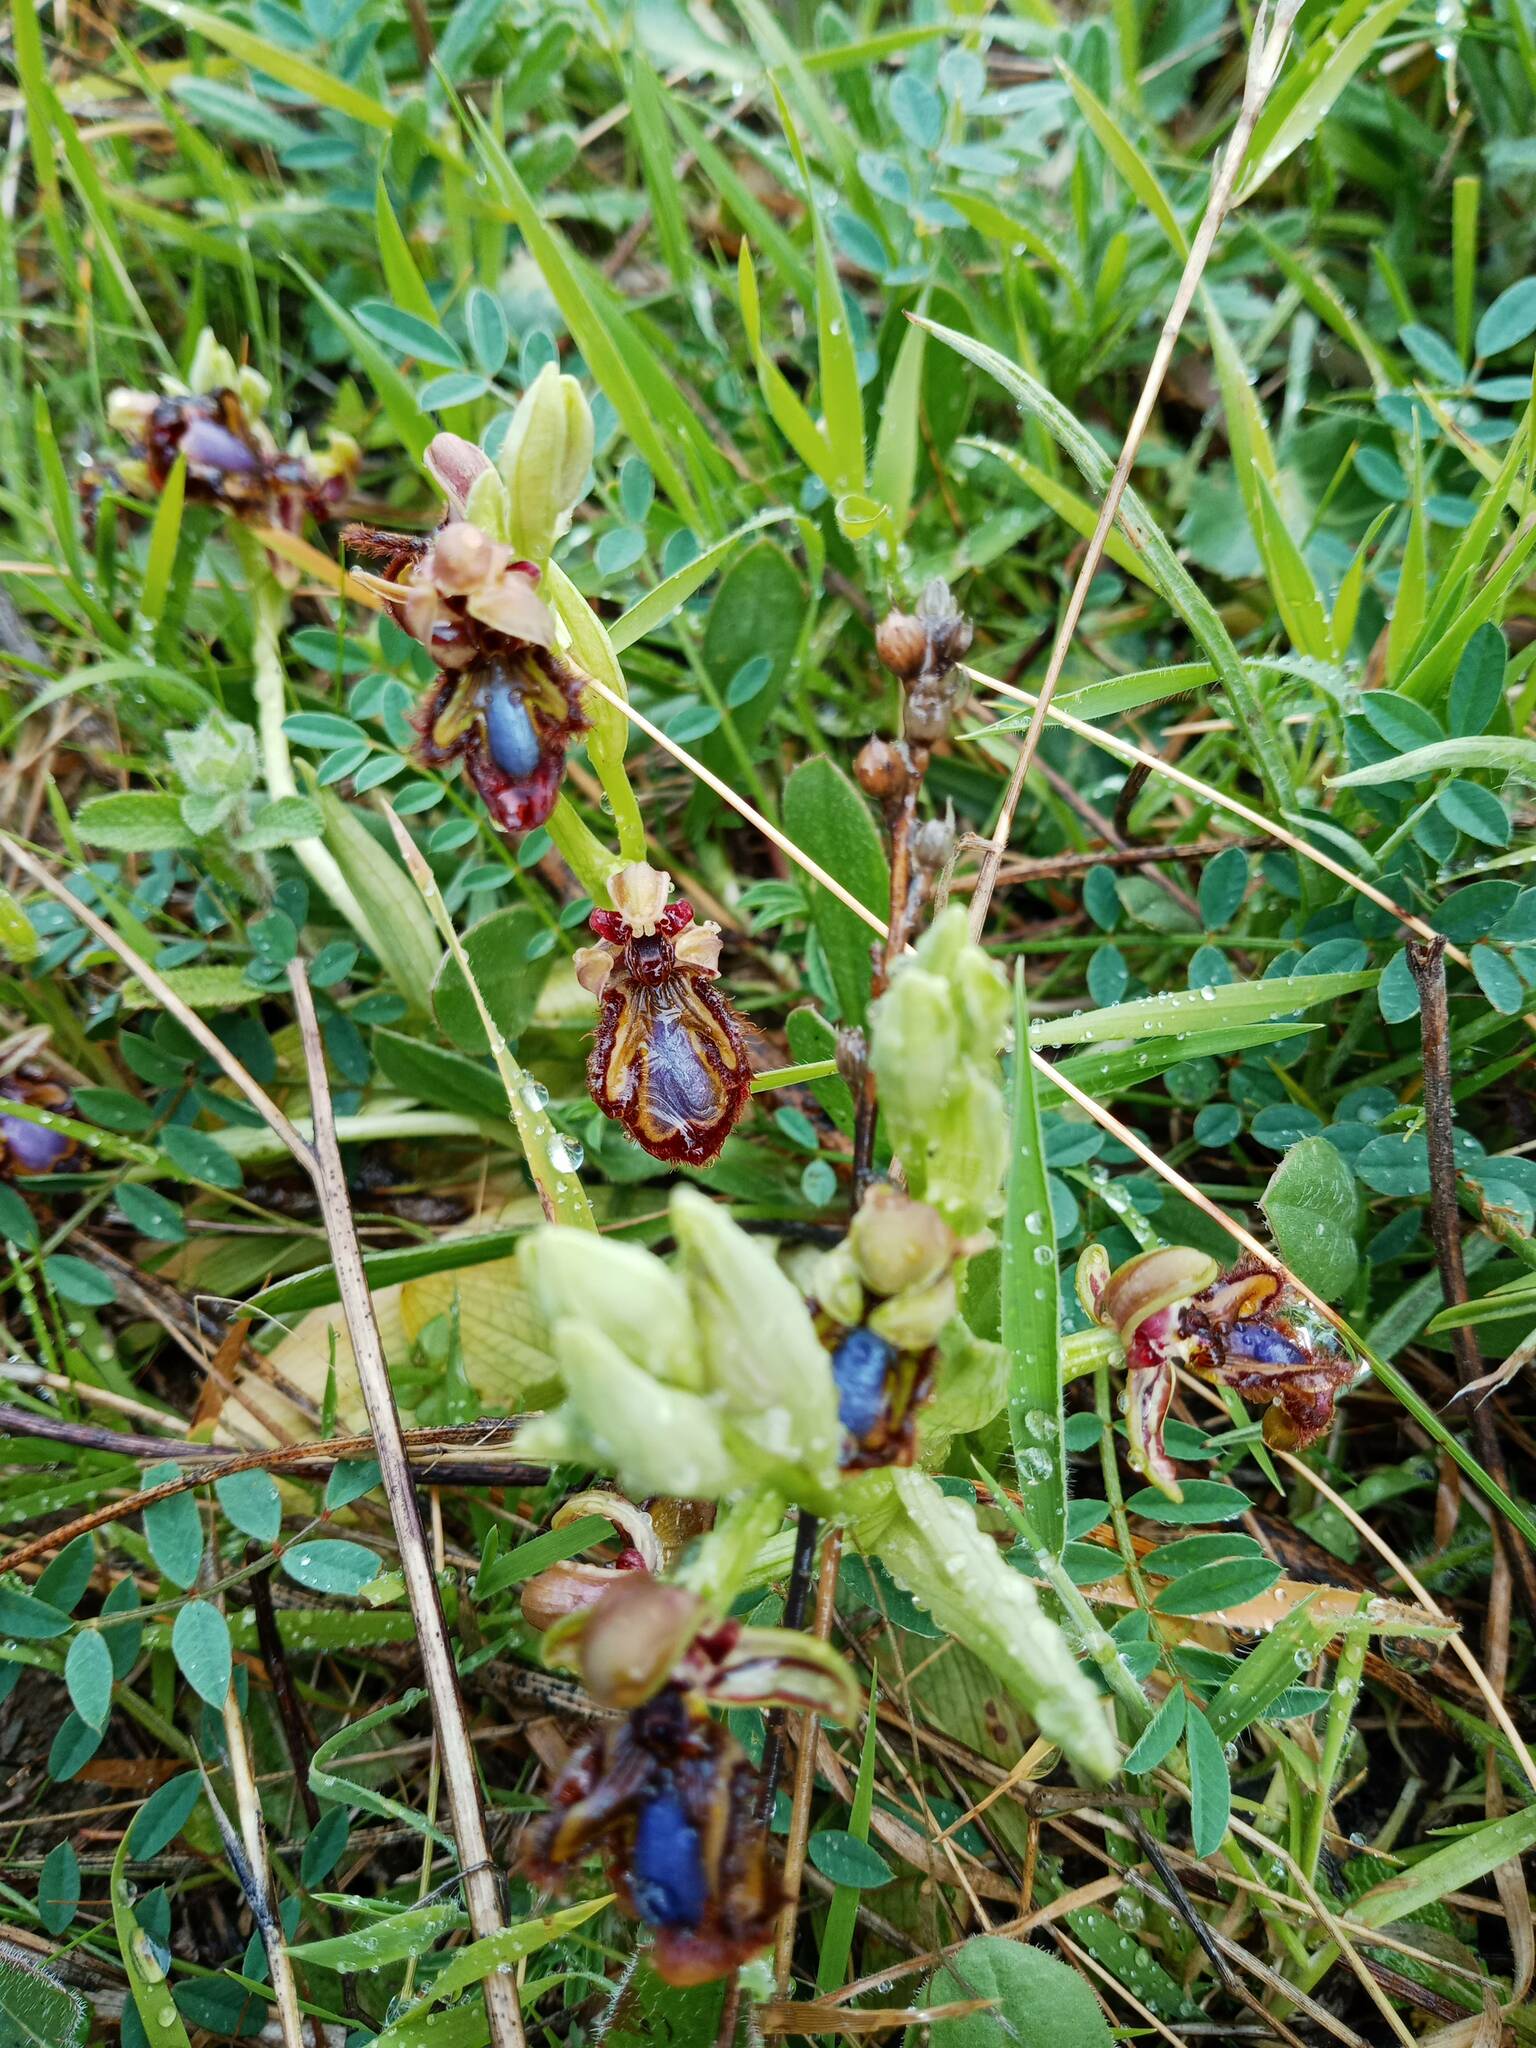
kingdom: Plantae
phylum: Tracheophyta
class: Liliopsida
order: Asparagales
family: Orchidaceae
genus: Ophrys
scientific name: Ophrys speculum
